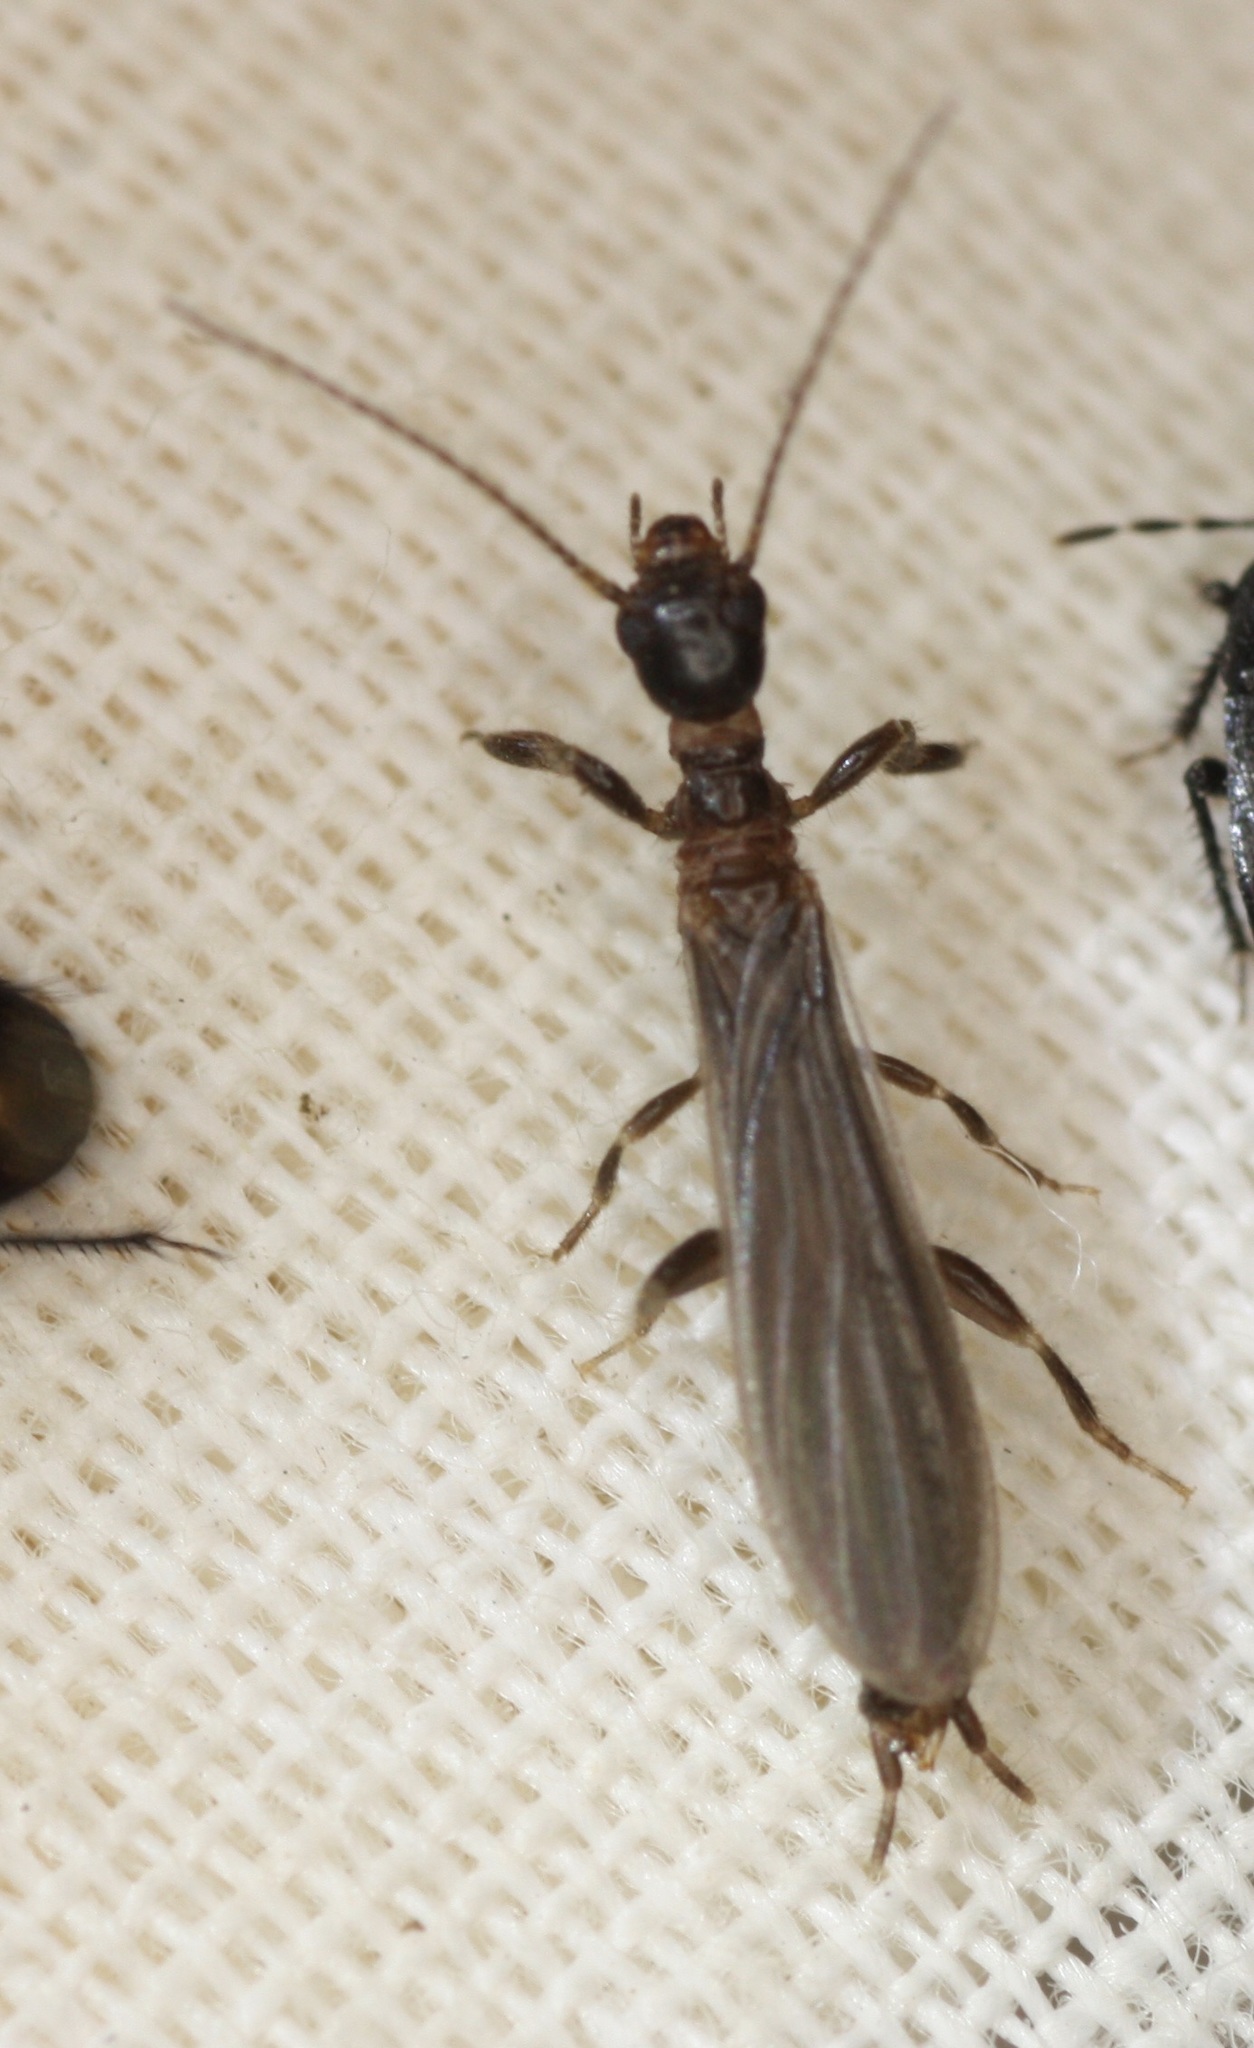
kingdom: Animalia
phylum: Arthropoda
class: Insecta
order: Embioptera
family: Oligotomidae
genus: Oligotoma
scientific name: Oligotoma nigra
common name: Black webspinner
